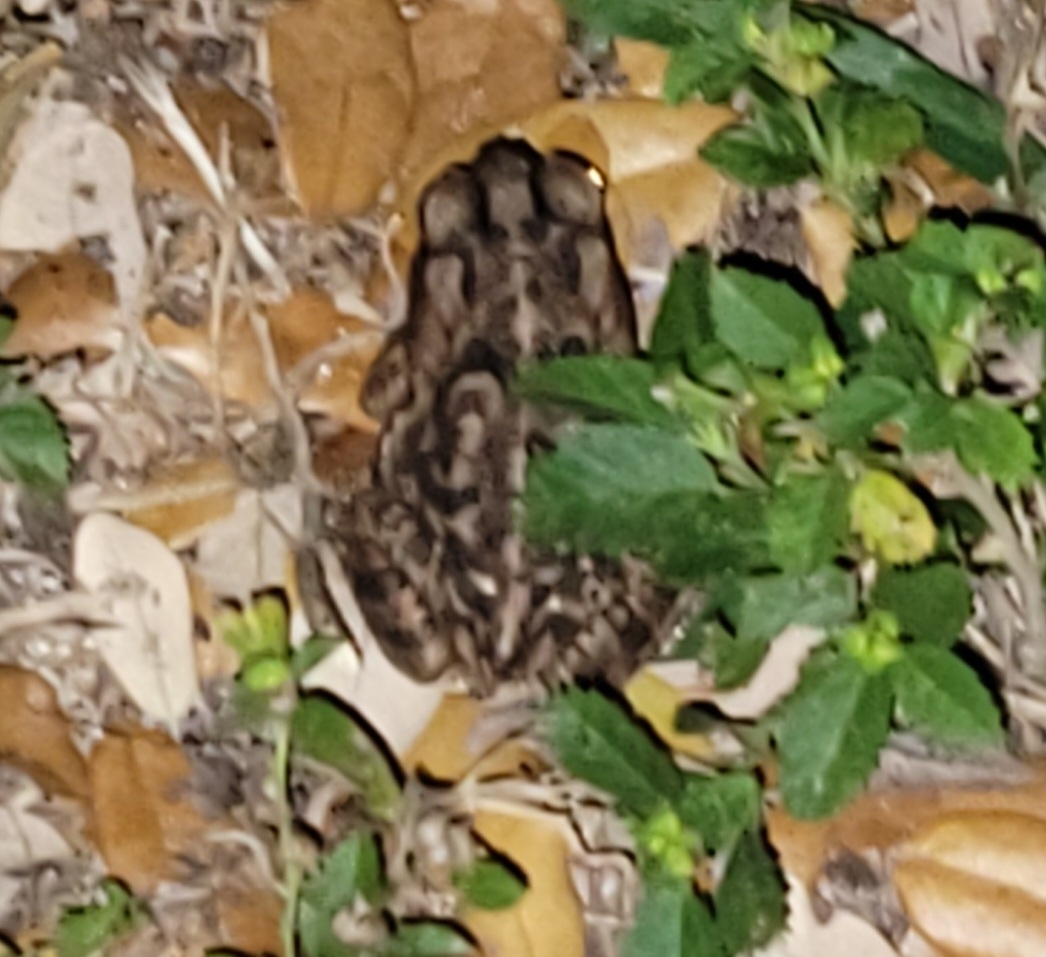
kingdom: Animalia
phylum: Chordata
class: Amphibia
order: Anura
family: Bufonidae
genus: Rhinella
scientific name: Rhinella marina
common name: Cane toad
